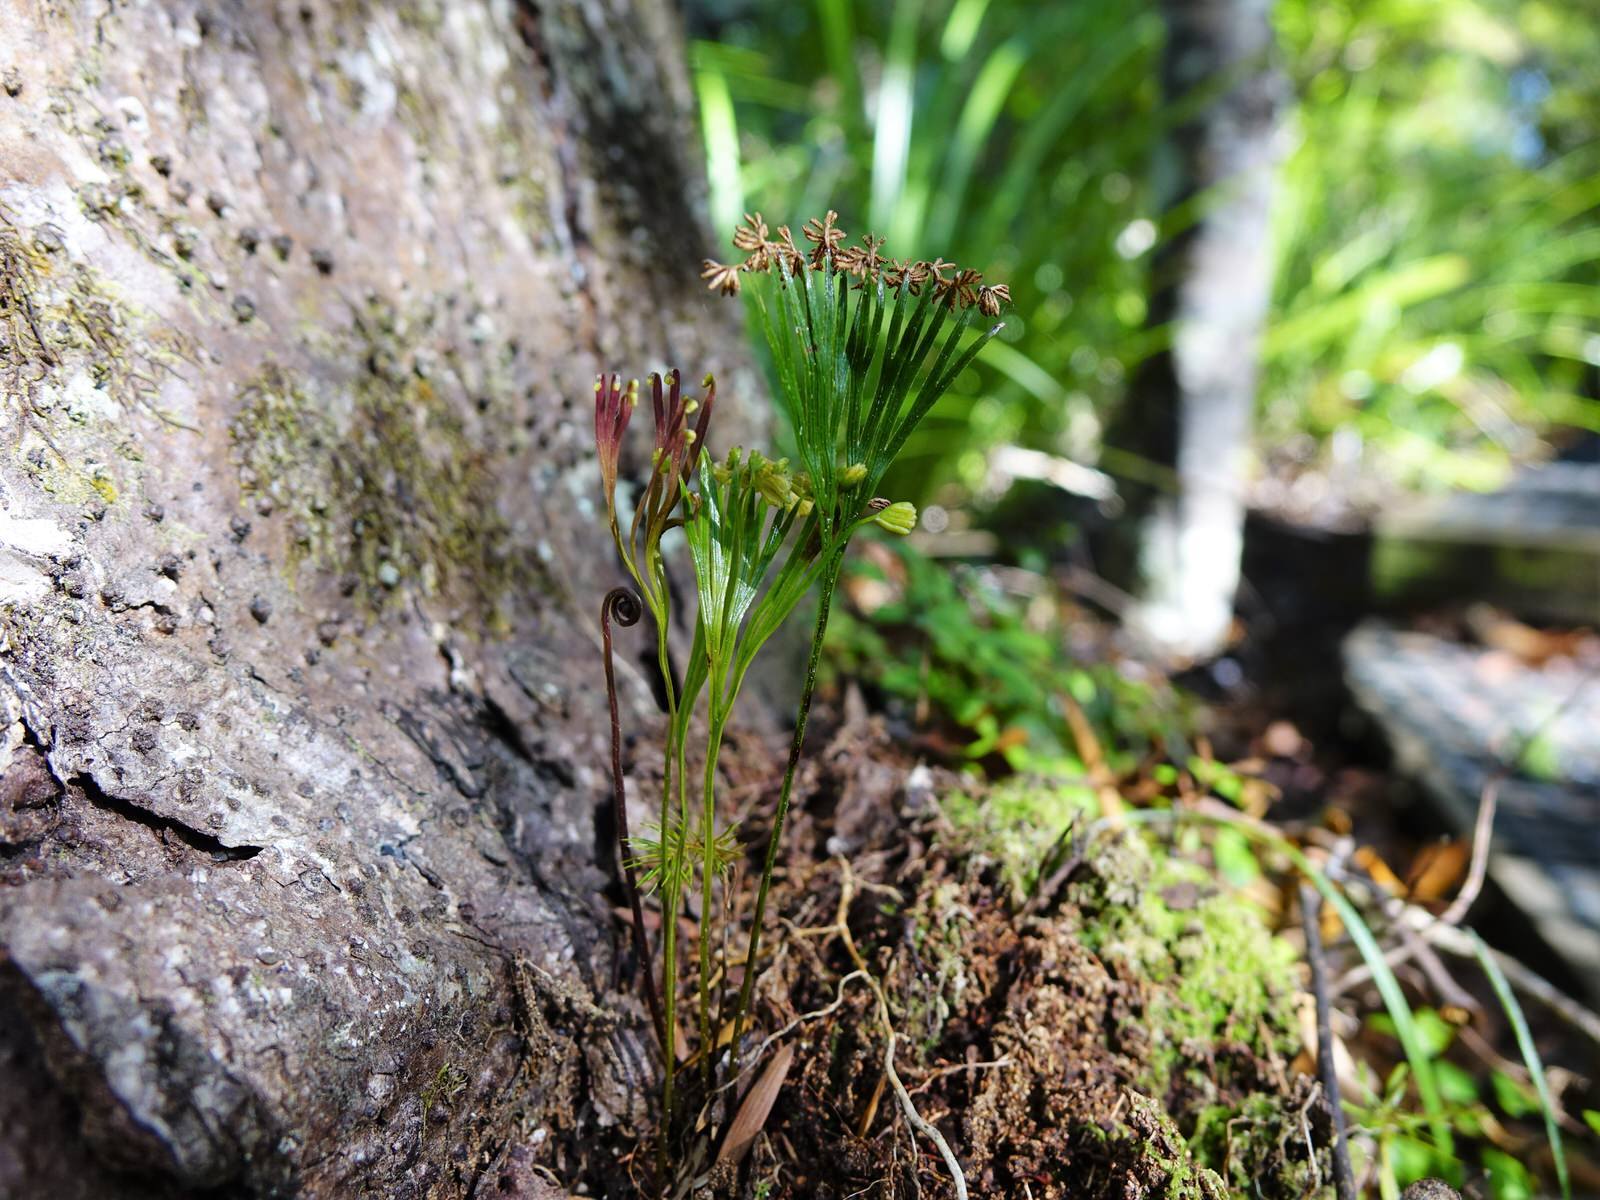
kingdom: Plantae
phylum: Tracheophyta
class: Polypodiopsida
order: Schizaeales
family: Schizaeaceae
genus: Schizaea
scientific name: Schizaea dichotoma
